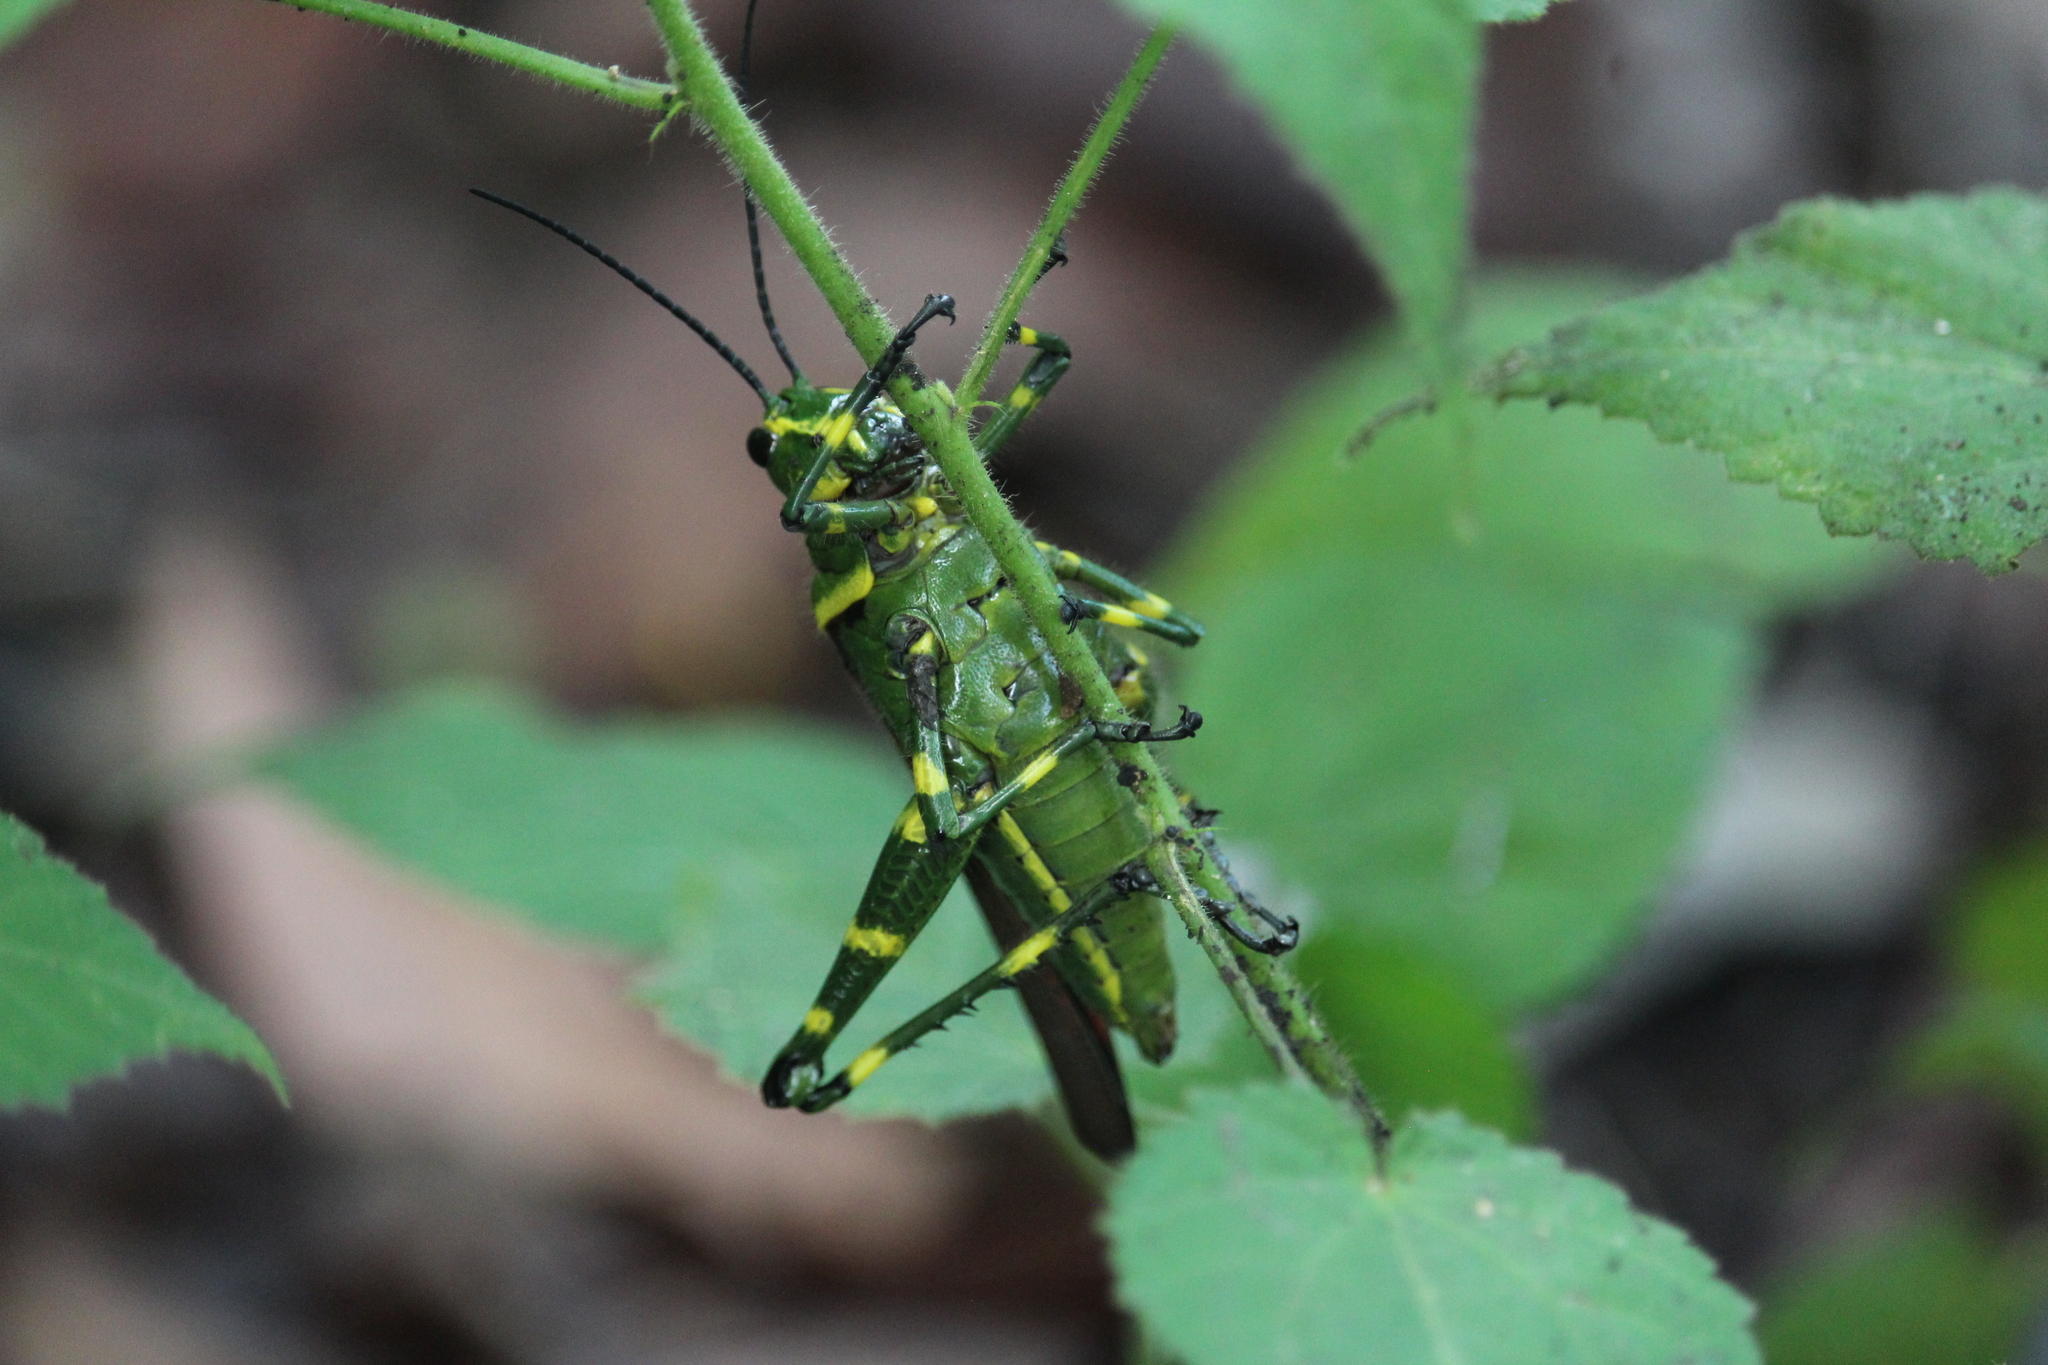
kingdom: Animalia
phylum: Arthropoda
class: Insecta
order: Orthoptera
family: Romaleidae
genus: Chromacris
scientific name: Chromacris miles
